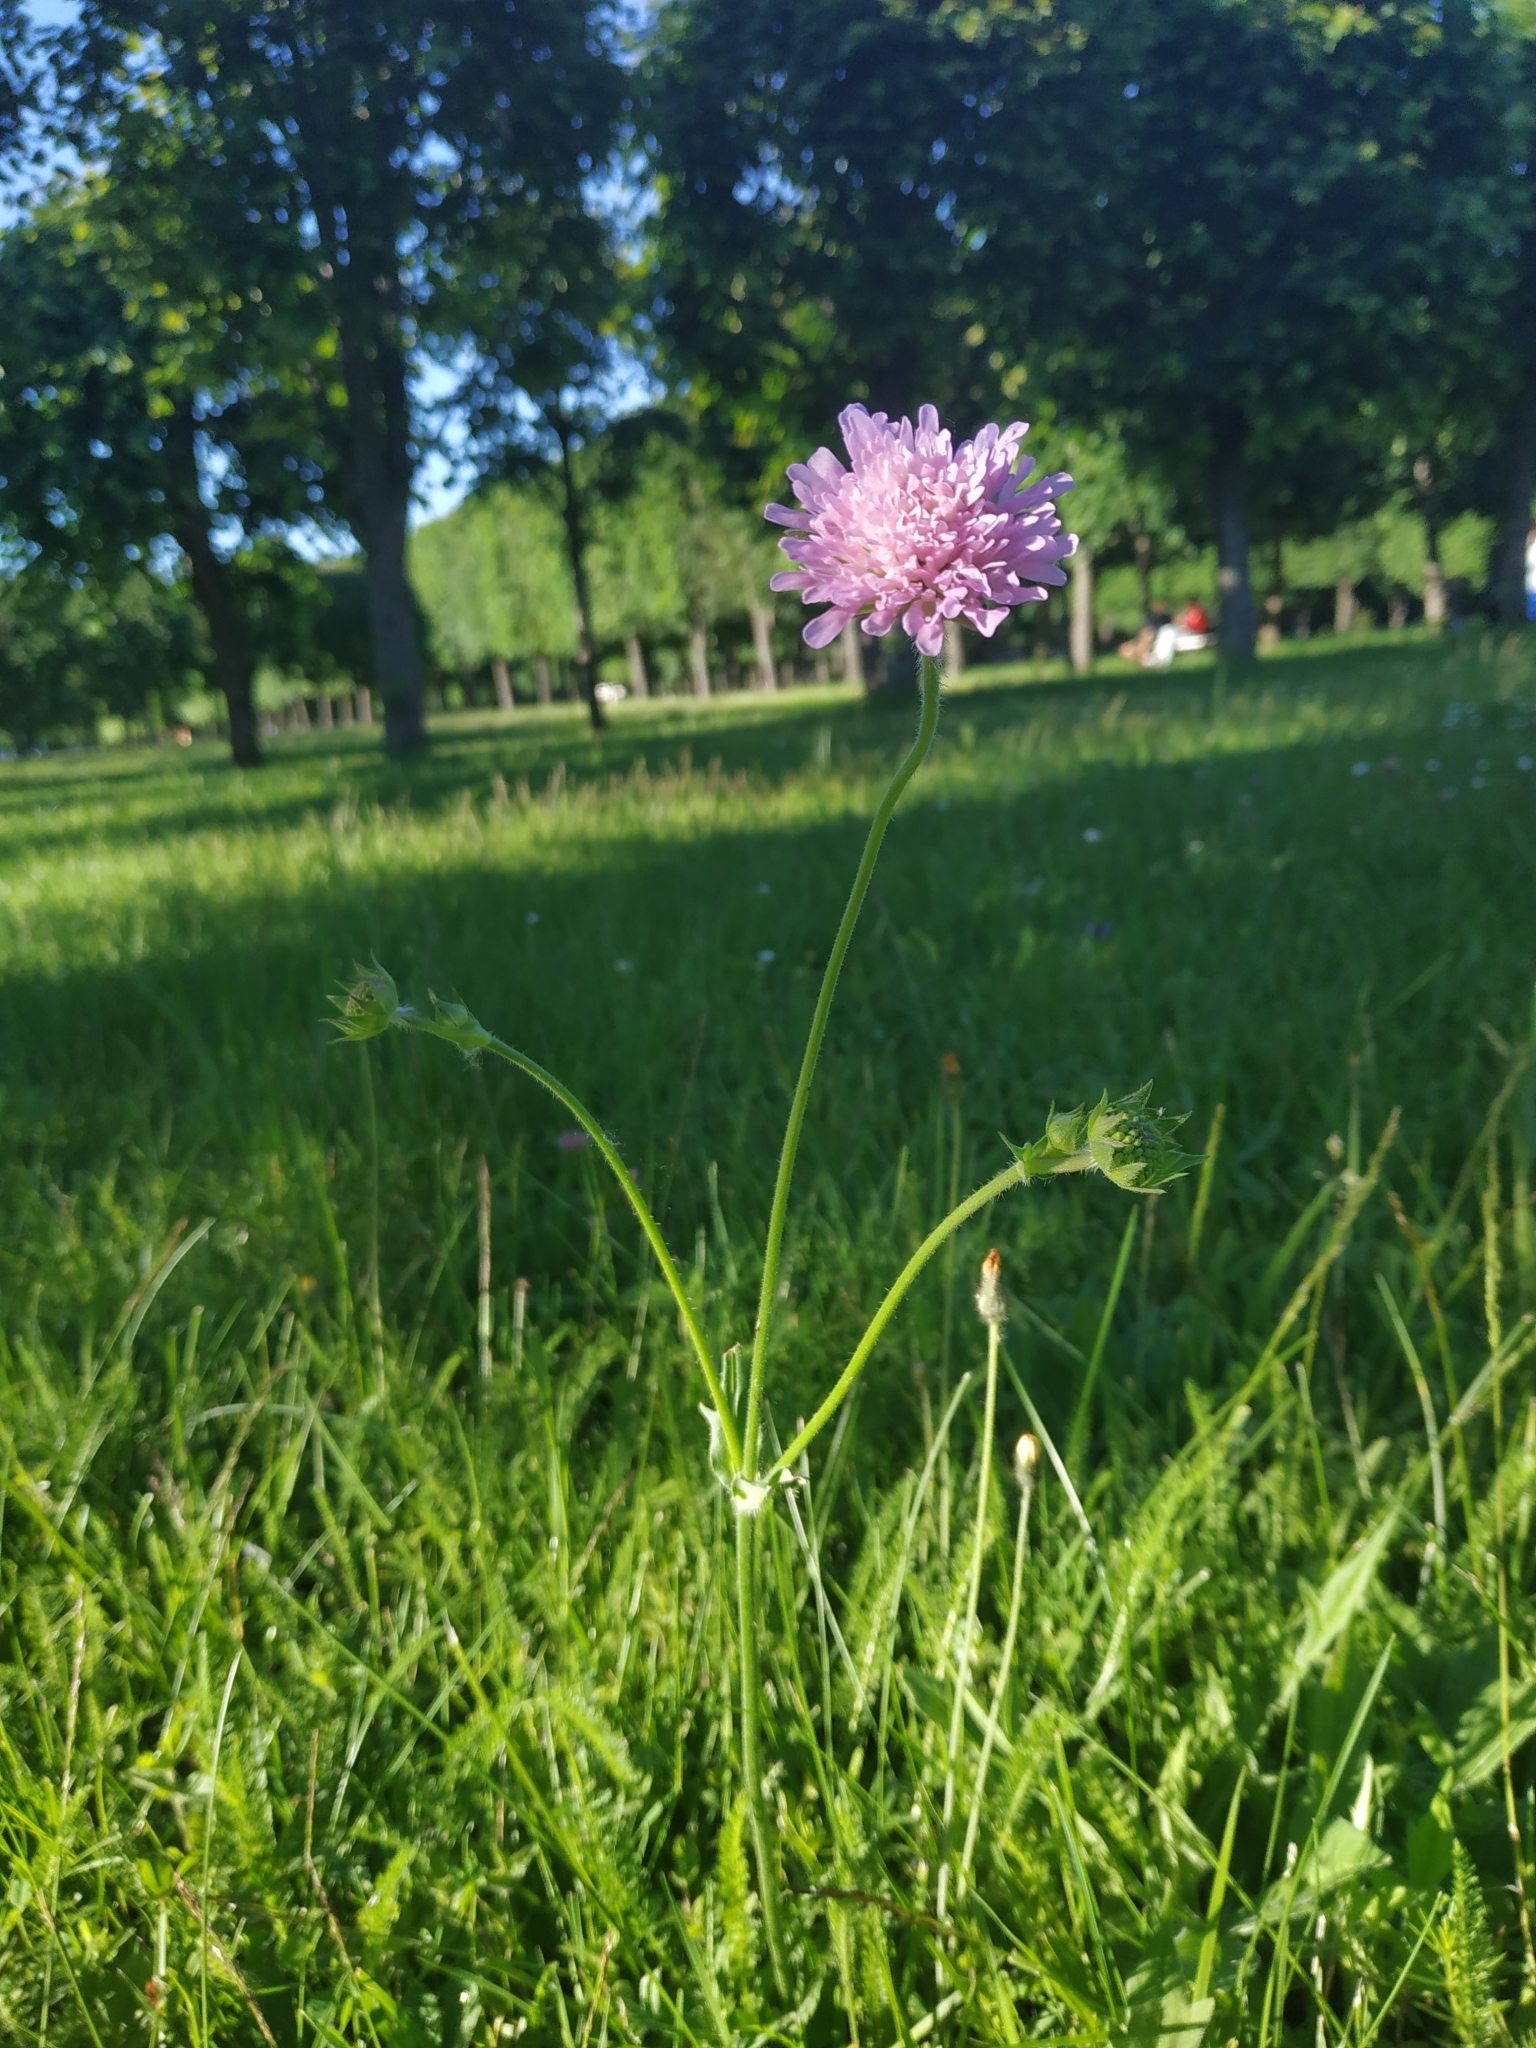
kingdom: Plantae
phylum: Tracheophyta
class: Magnoliopsida
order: Dipsacales
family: Caprifoliaceae
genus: Knautia
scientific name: Knautia arvensis
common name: Field scabiosa
